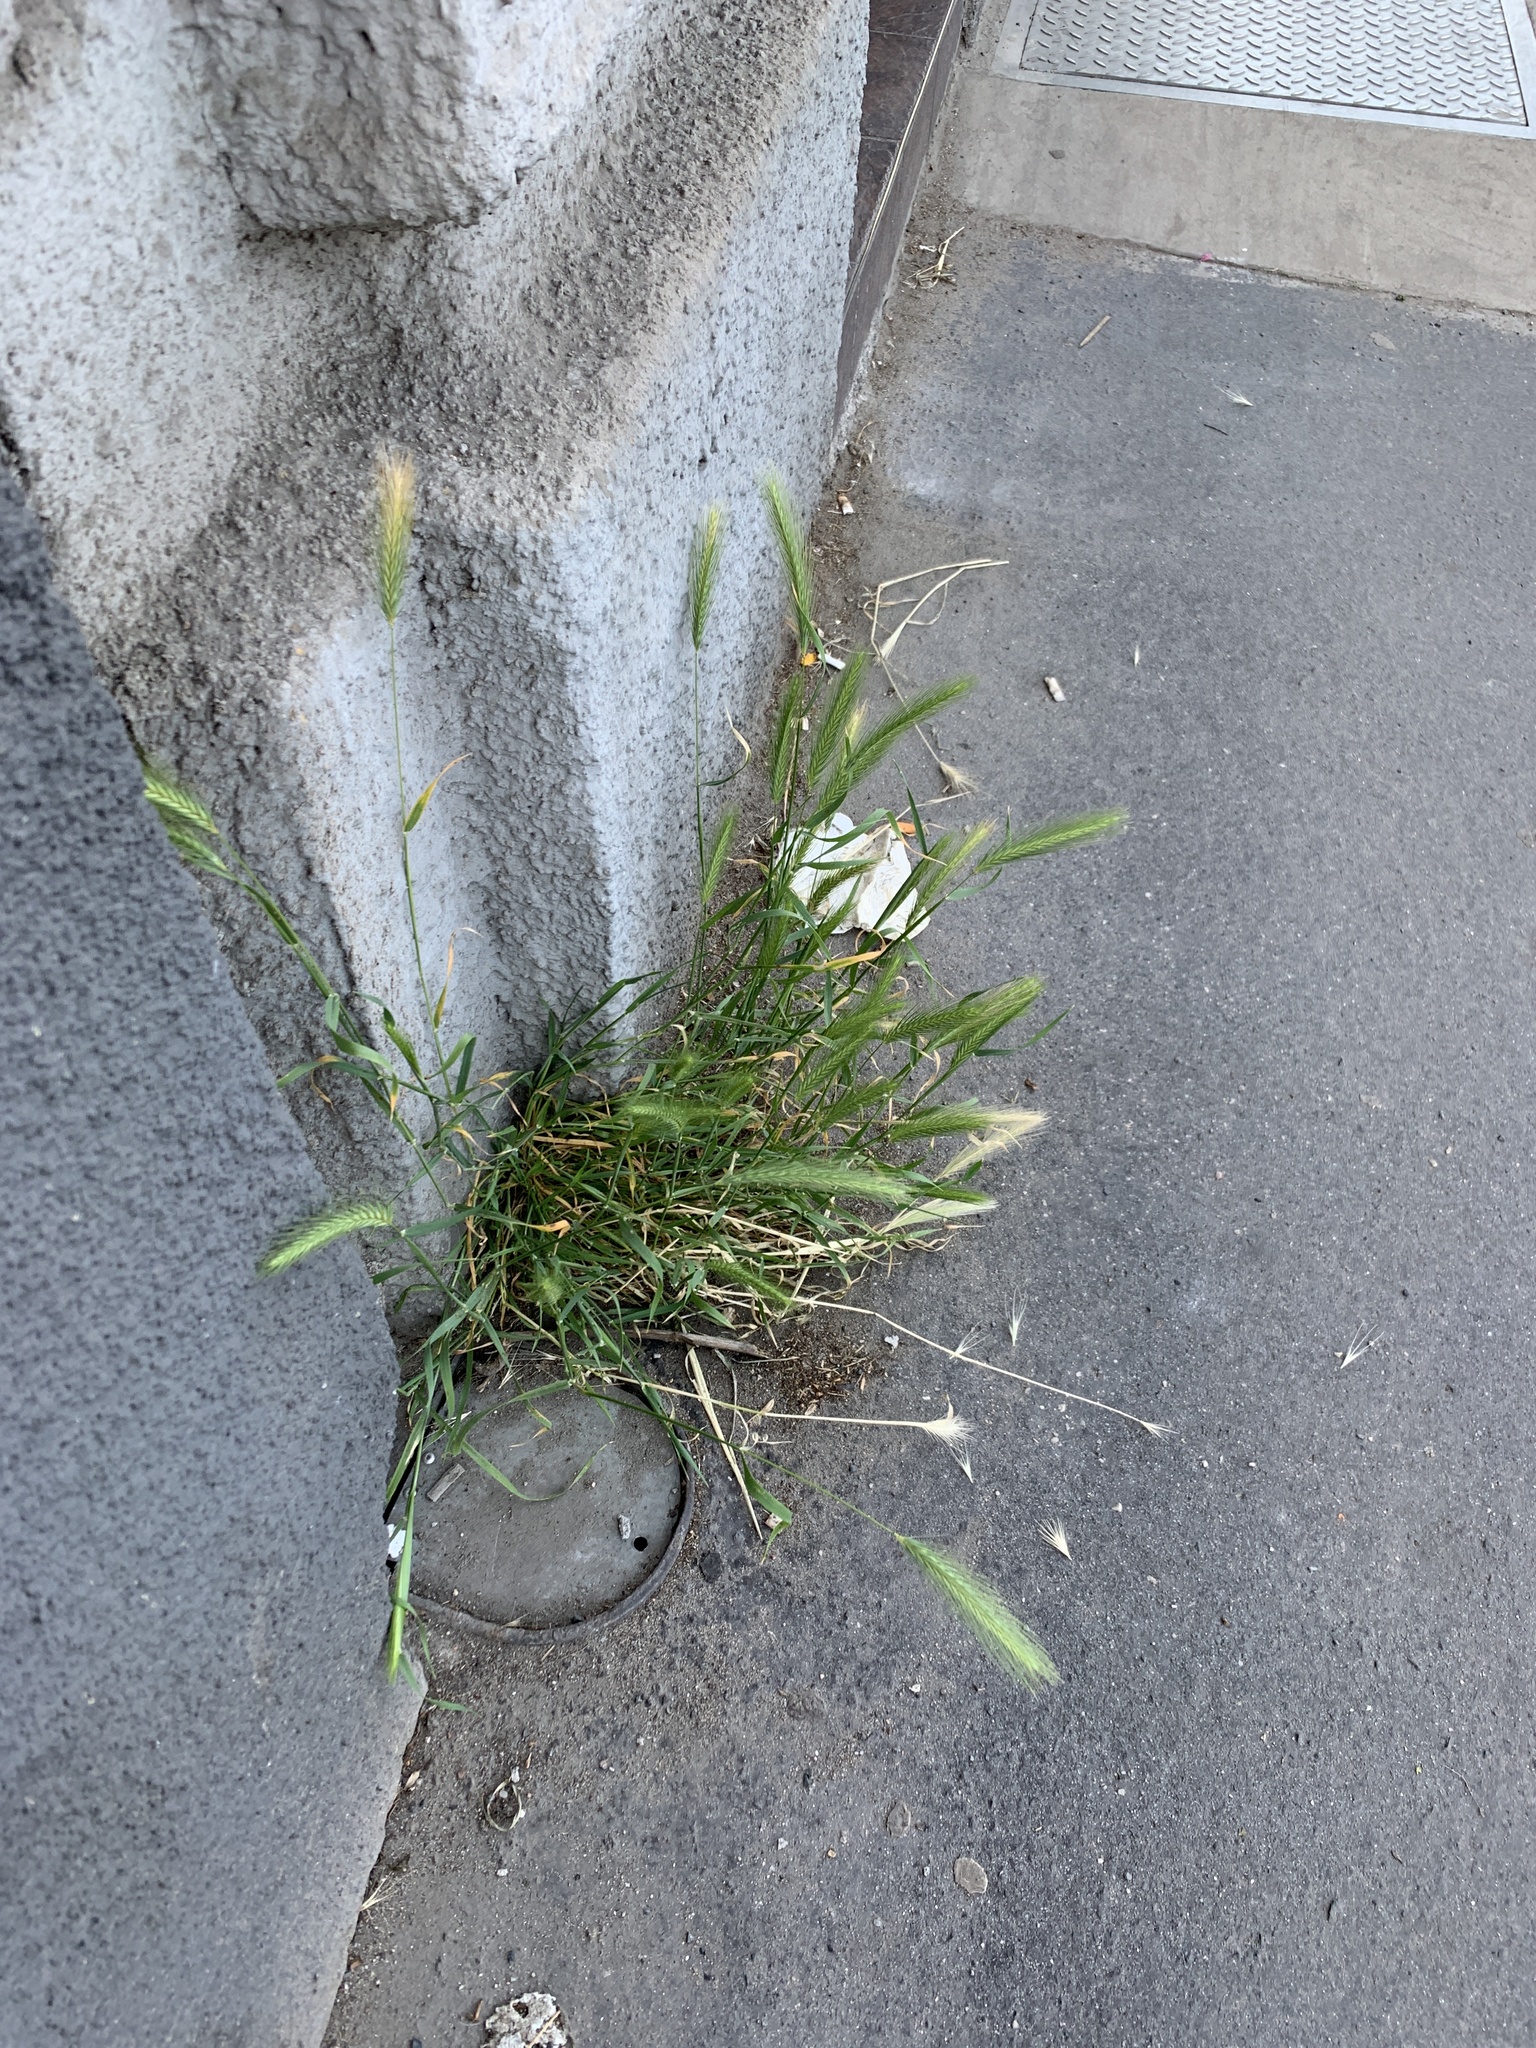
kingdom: Plantae
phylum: Tracheophyta
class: Liliopsida
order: Poales
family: Poaceae
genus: Hordeum
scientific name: Hordeum murinum
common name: Wall barley
